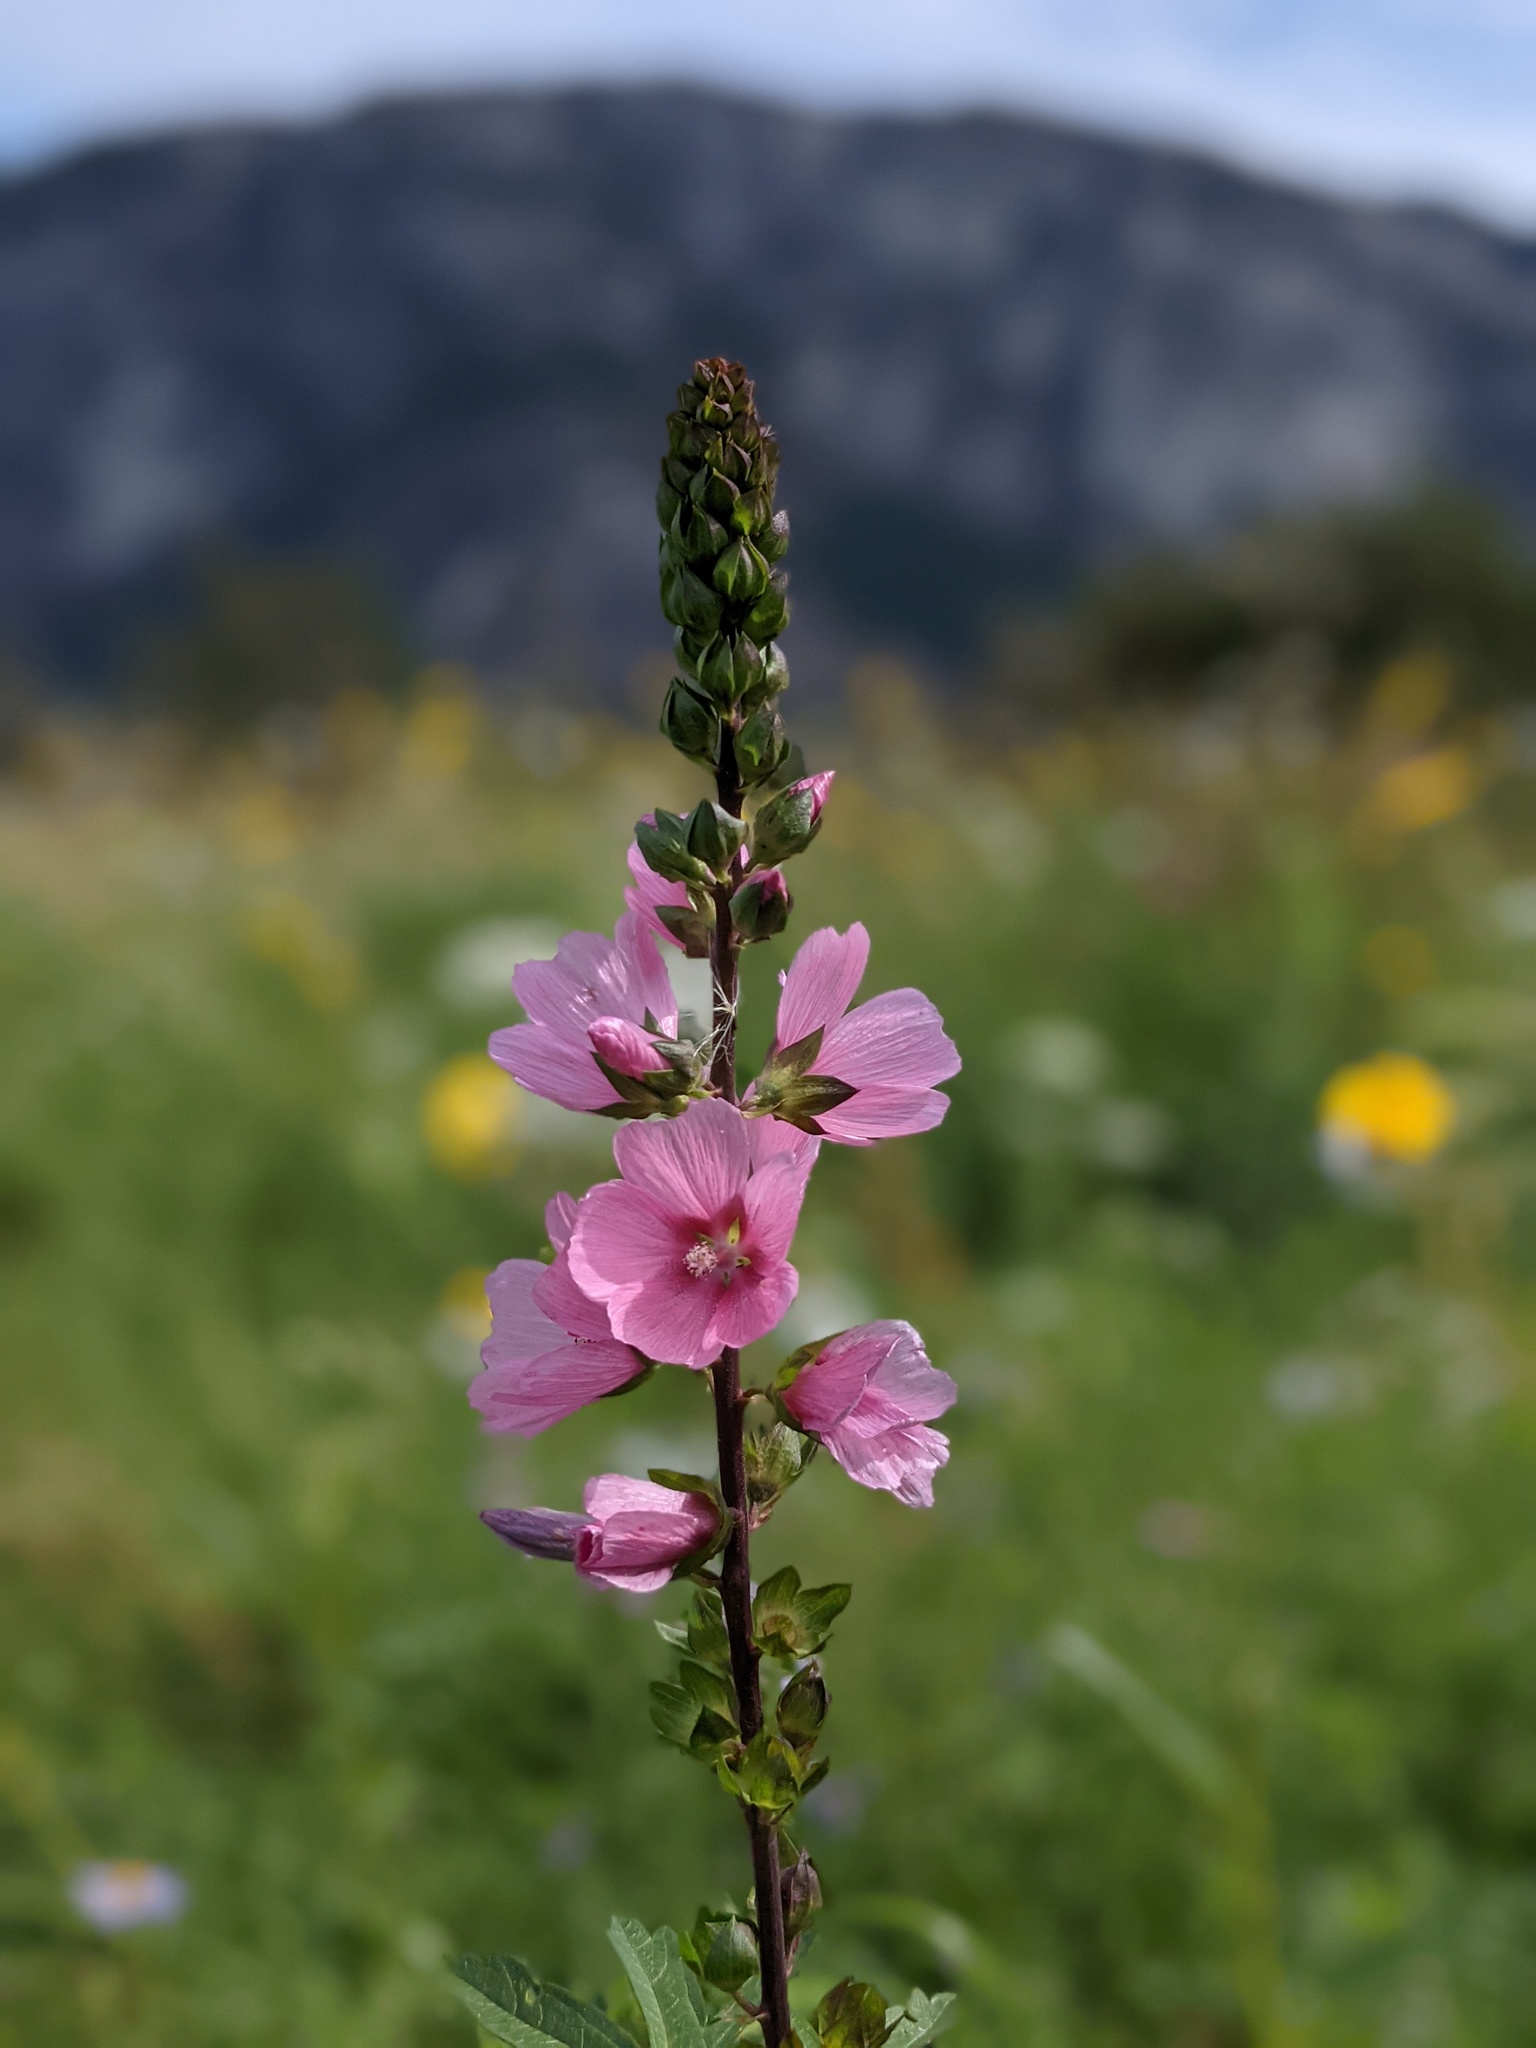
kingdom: Plantae
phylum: Tracheophyta
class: Magnoliopsida
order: Malvales
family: Malvaceae
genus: Sidalcea
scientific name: Sidalcea hendersonii
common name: Mallow
